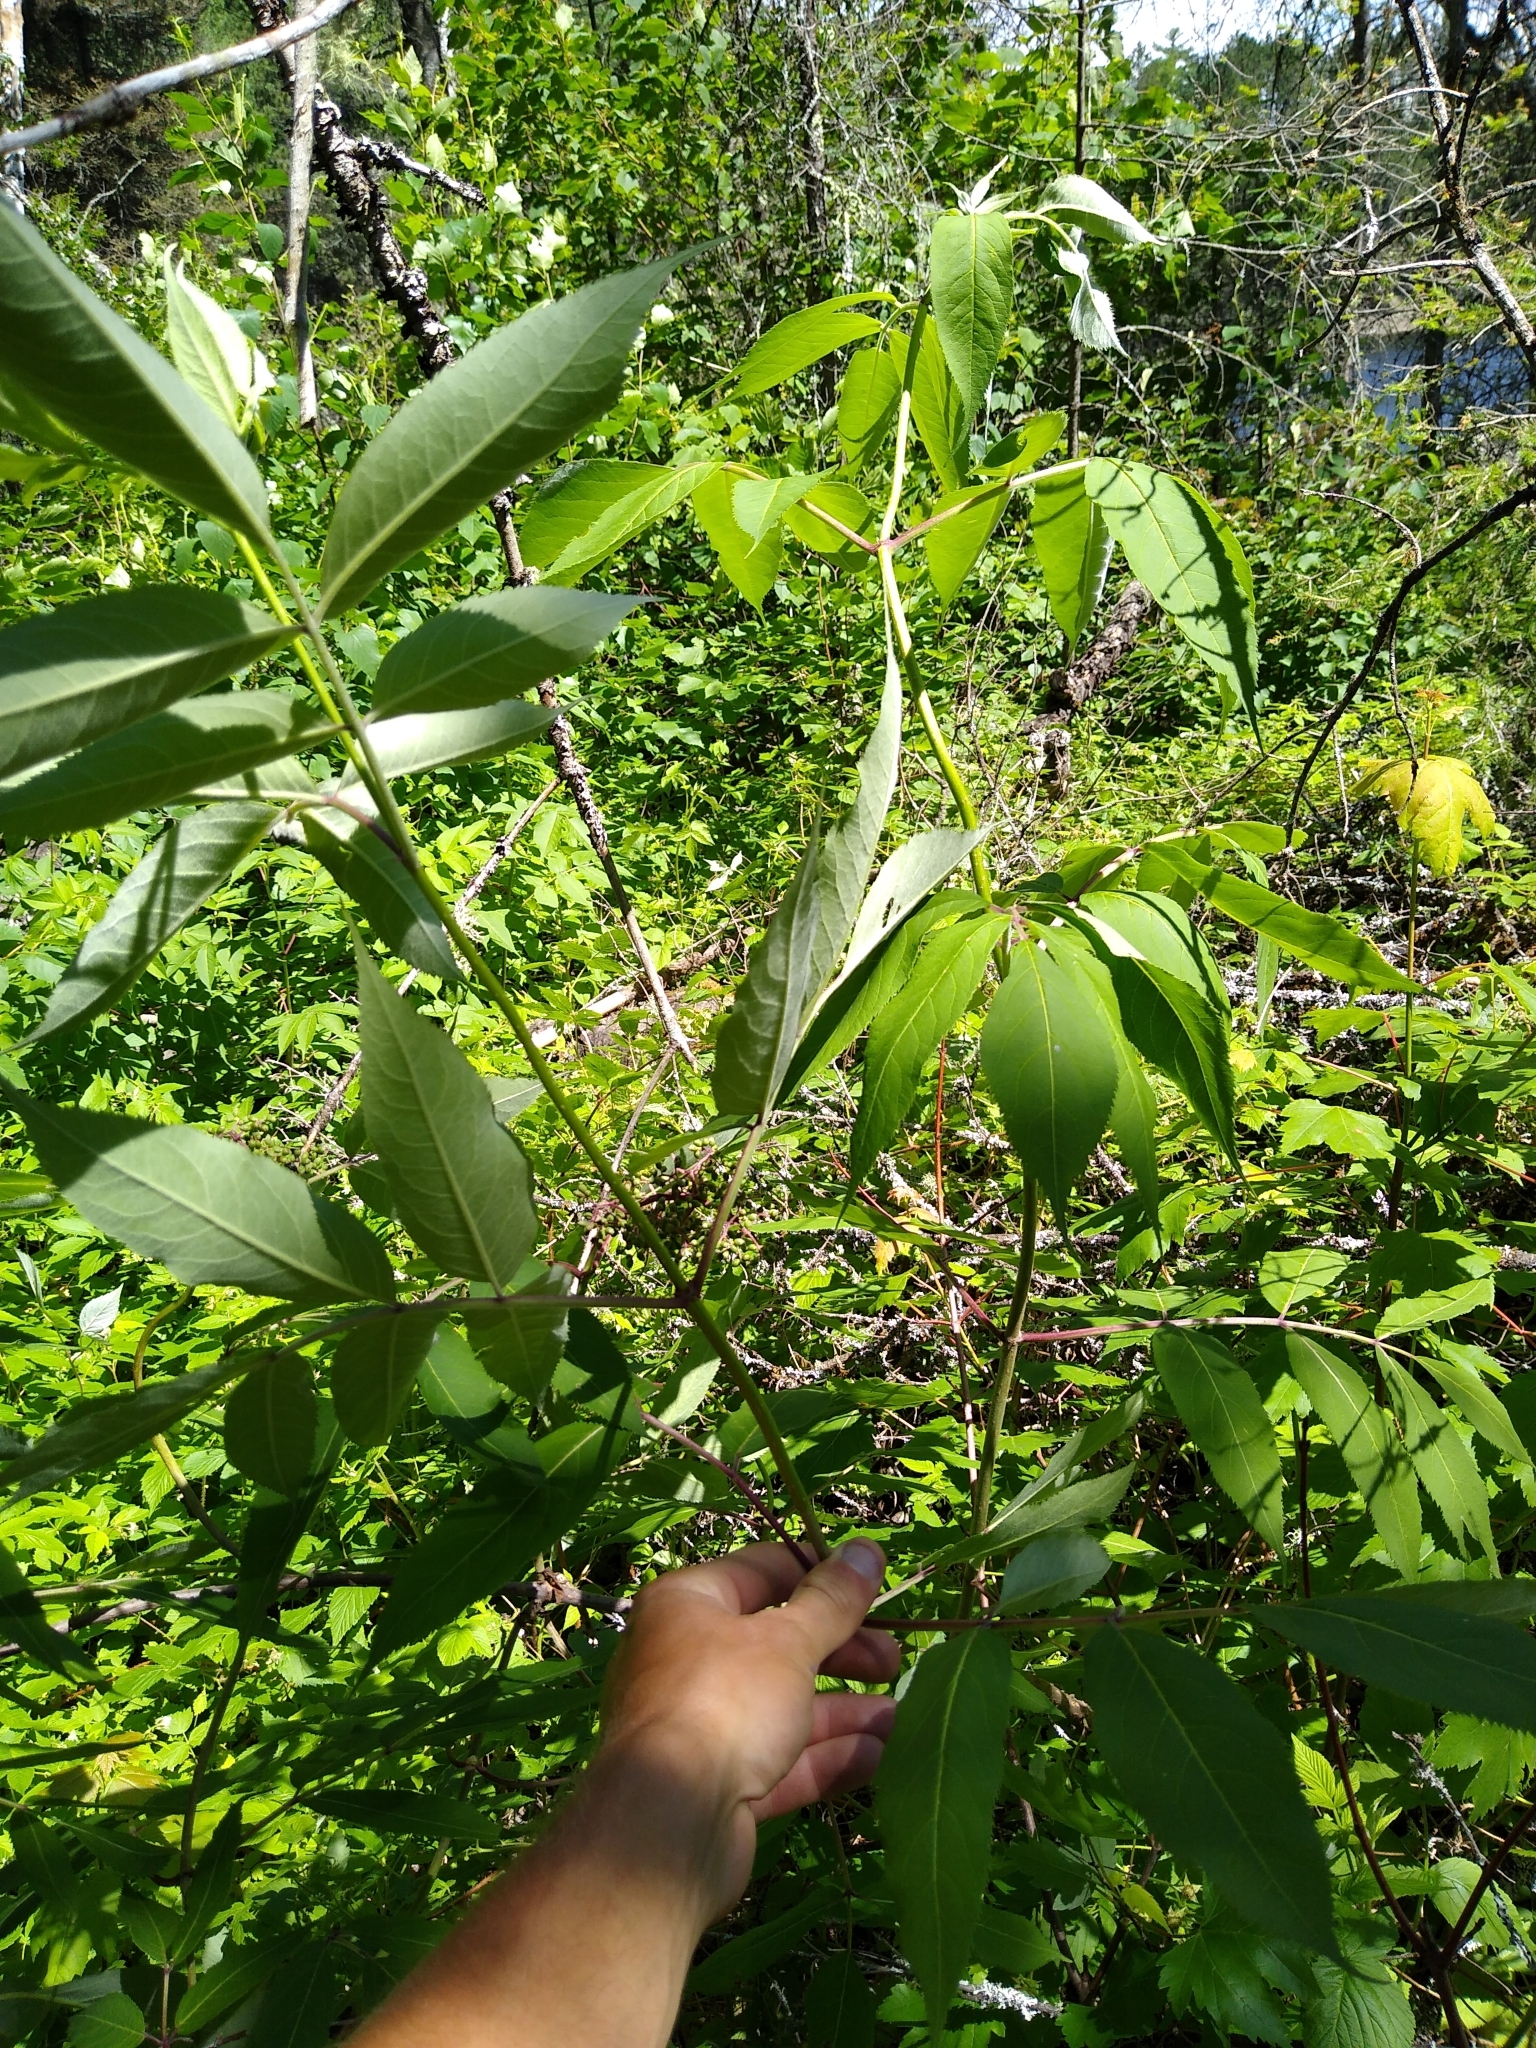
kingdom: Plantae
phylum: Tracheophyta
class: Magnoliopsida
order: Dipsacales
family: Viburnaceae
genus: Sambucus
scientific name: Sambucus racemosa
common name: Red-berried elder
